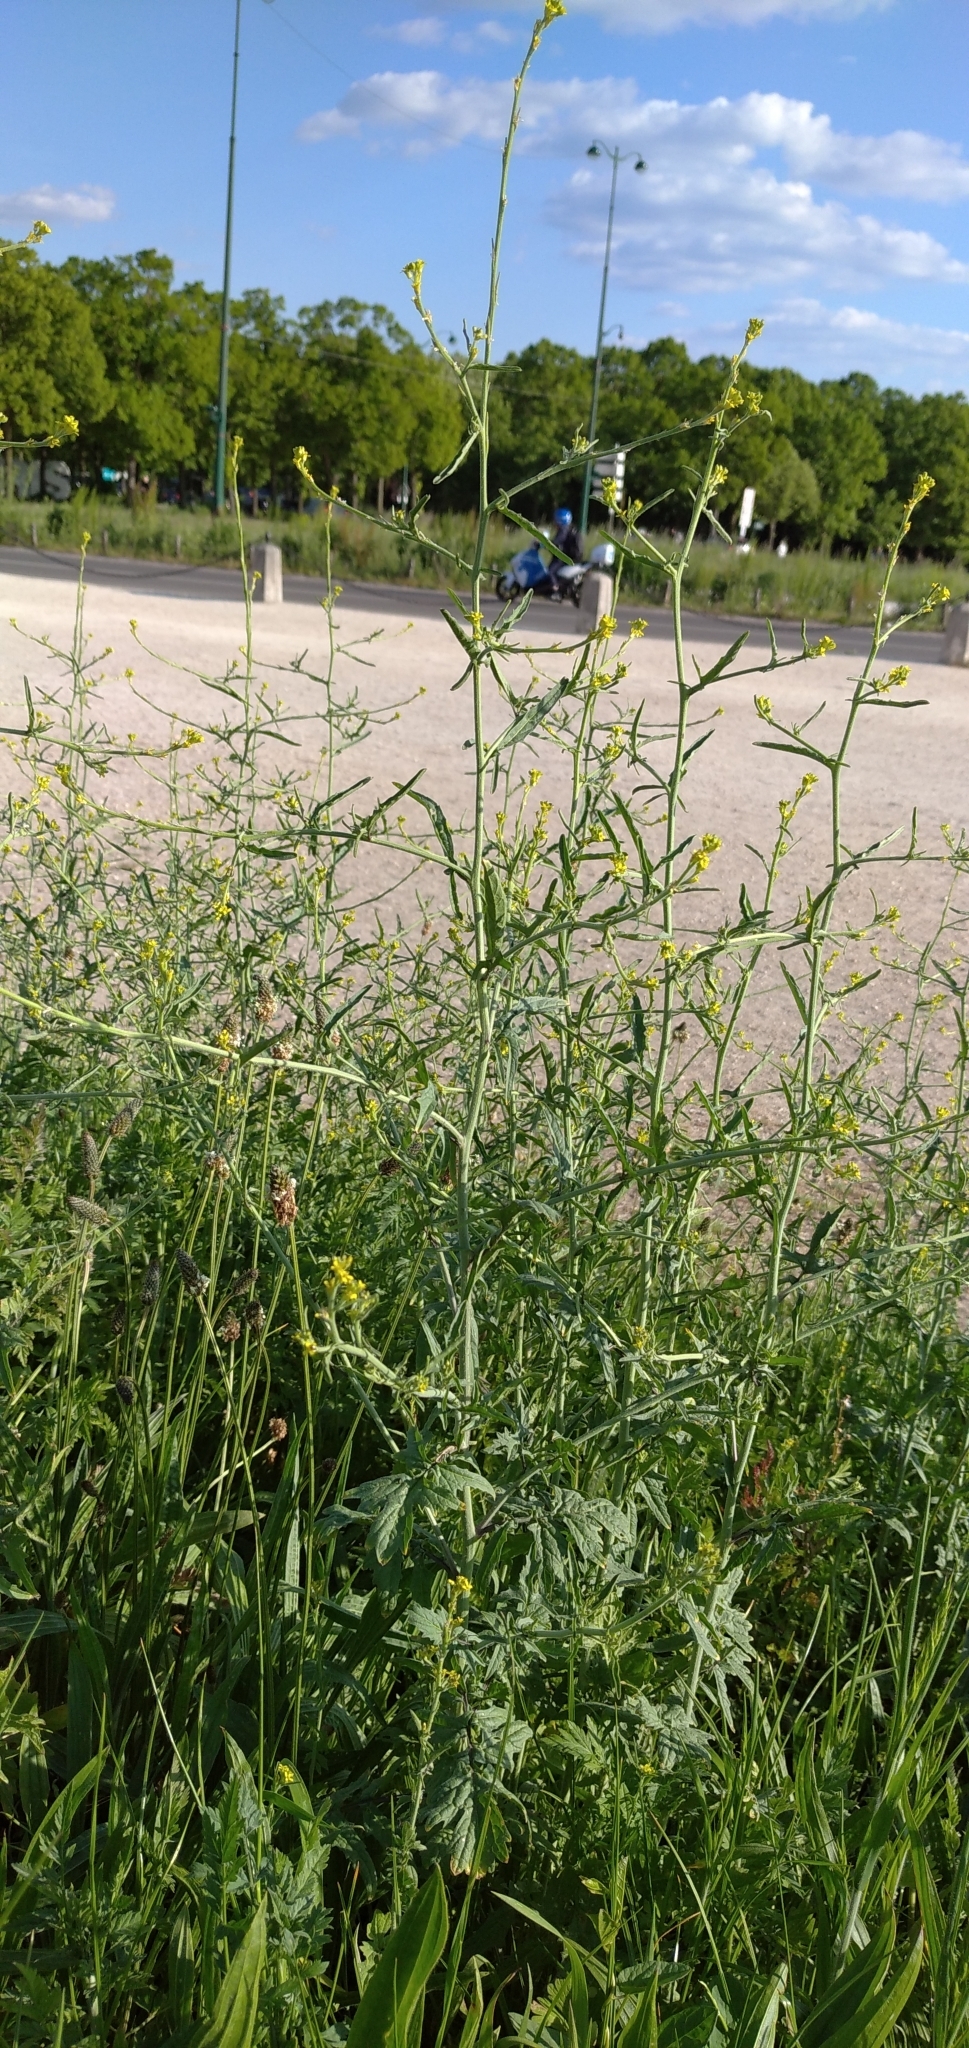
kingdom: Plantae
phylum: Tracheophyta
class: Magnoliopsida
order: Brassicales
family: Brassicaceae
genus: Sisymbrium
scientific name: Sisymbrium officinale
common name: Hedge mustard
